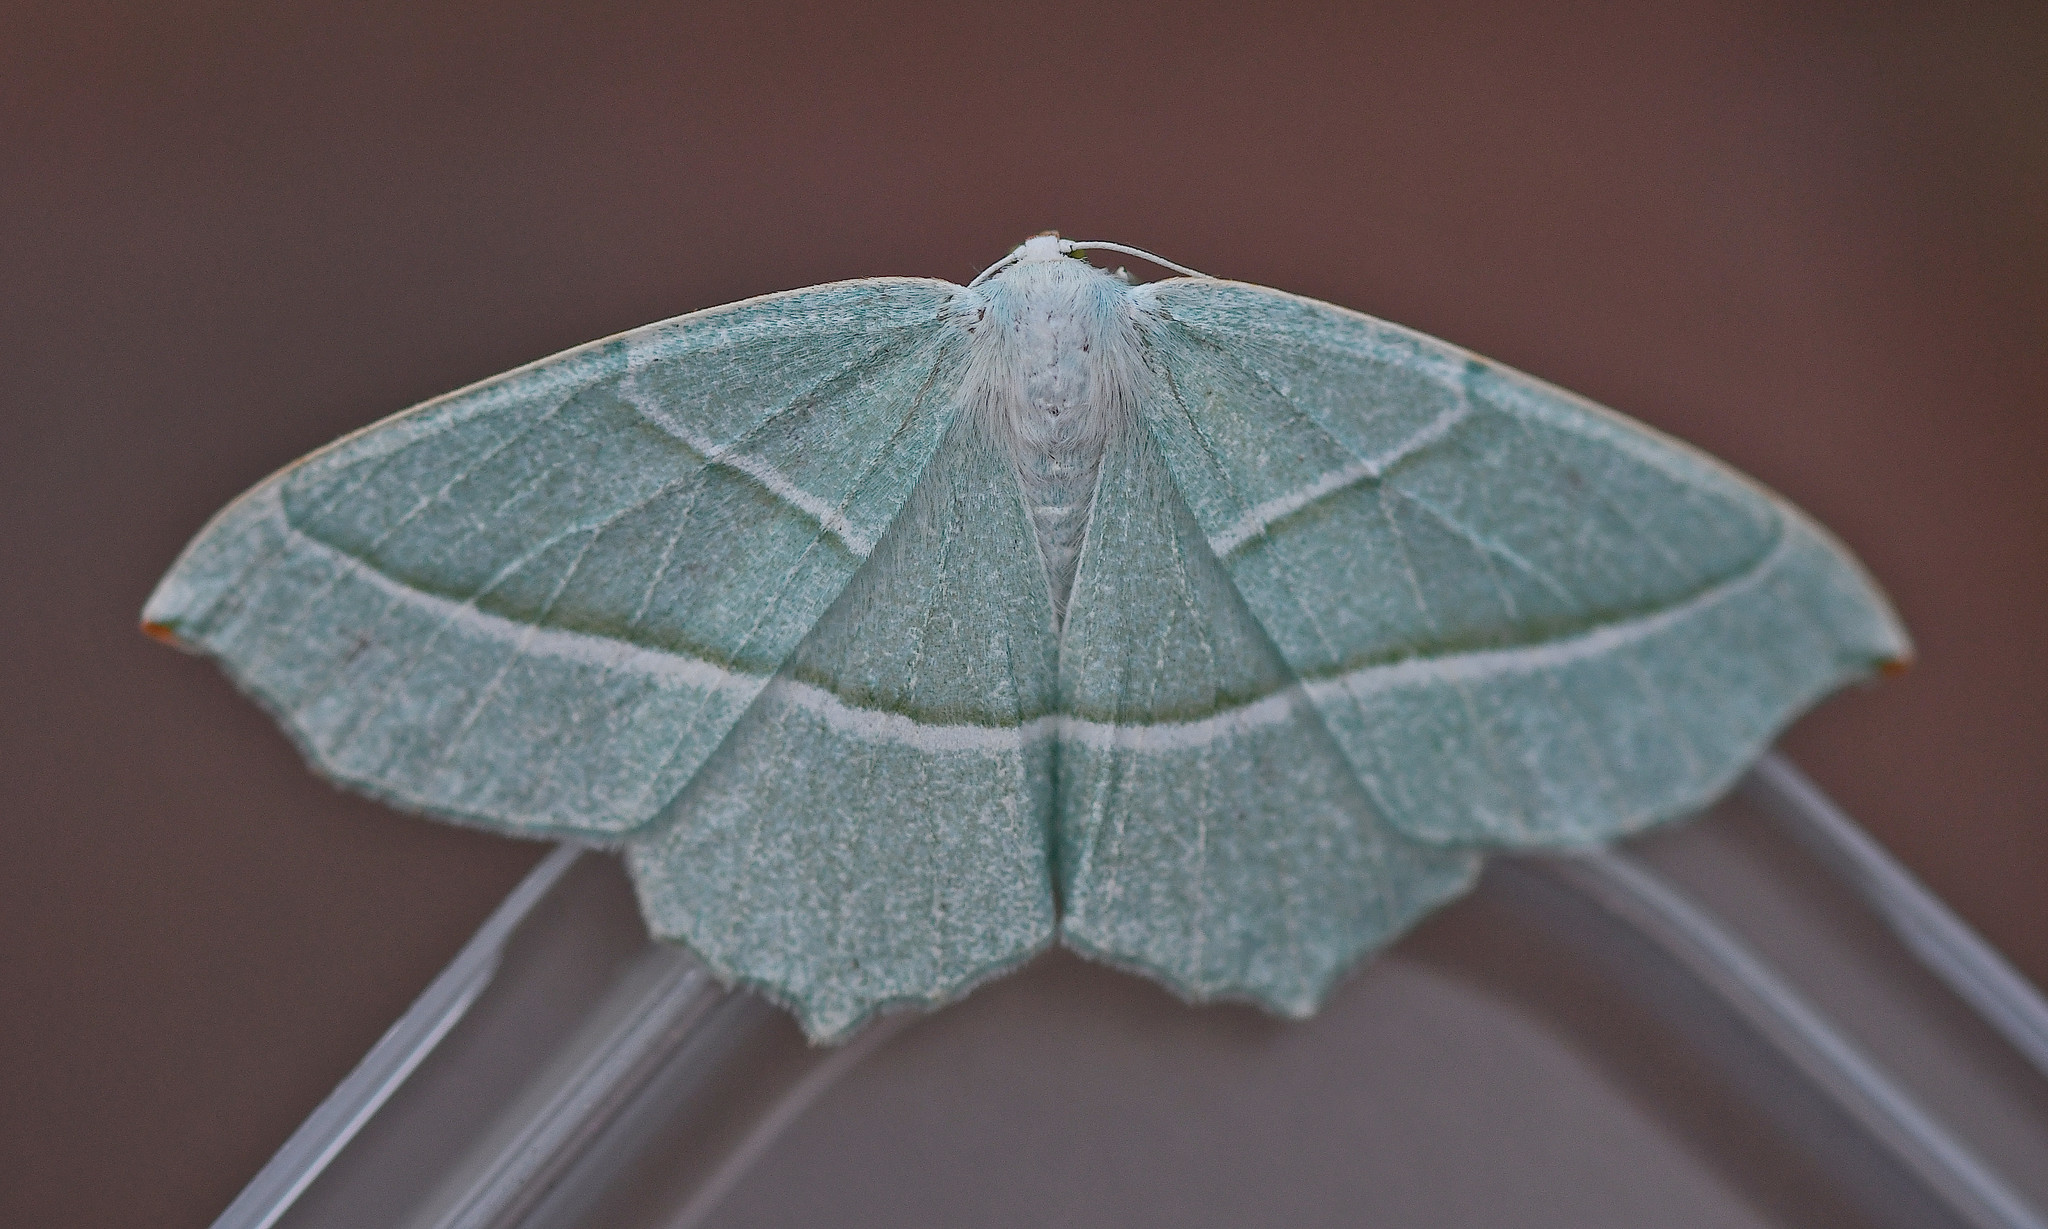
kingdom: Animalia
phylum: Arthropoda
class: Insecta
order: Lepidoptera
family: Geometridae
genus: Campaea
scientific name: Campaea margaritaria
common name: Light emerald
